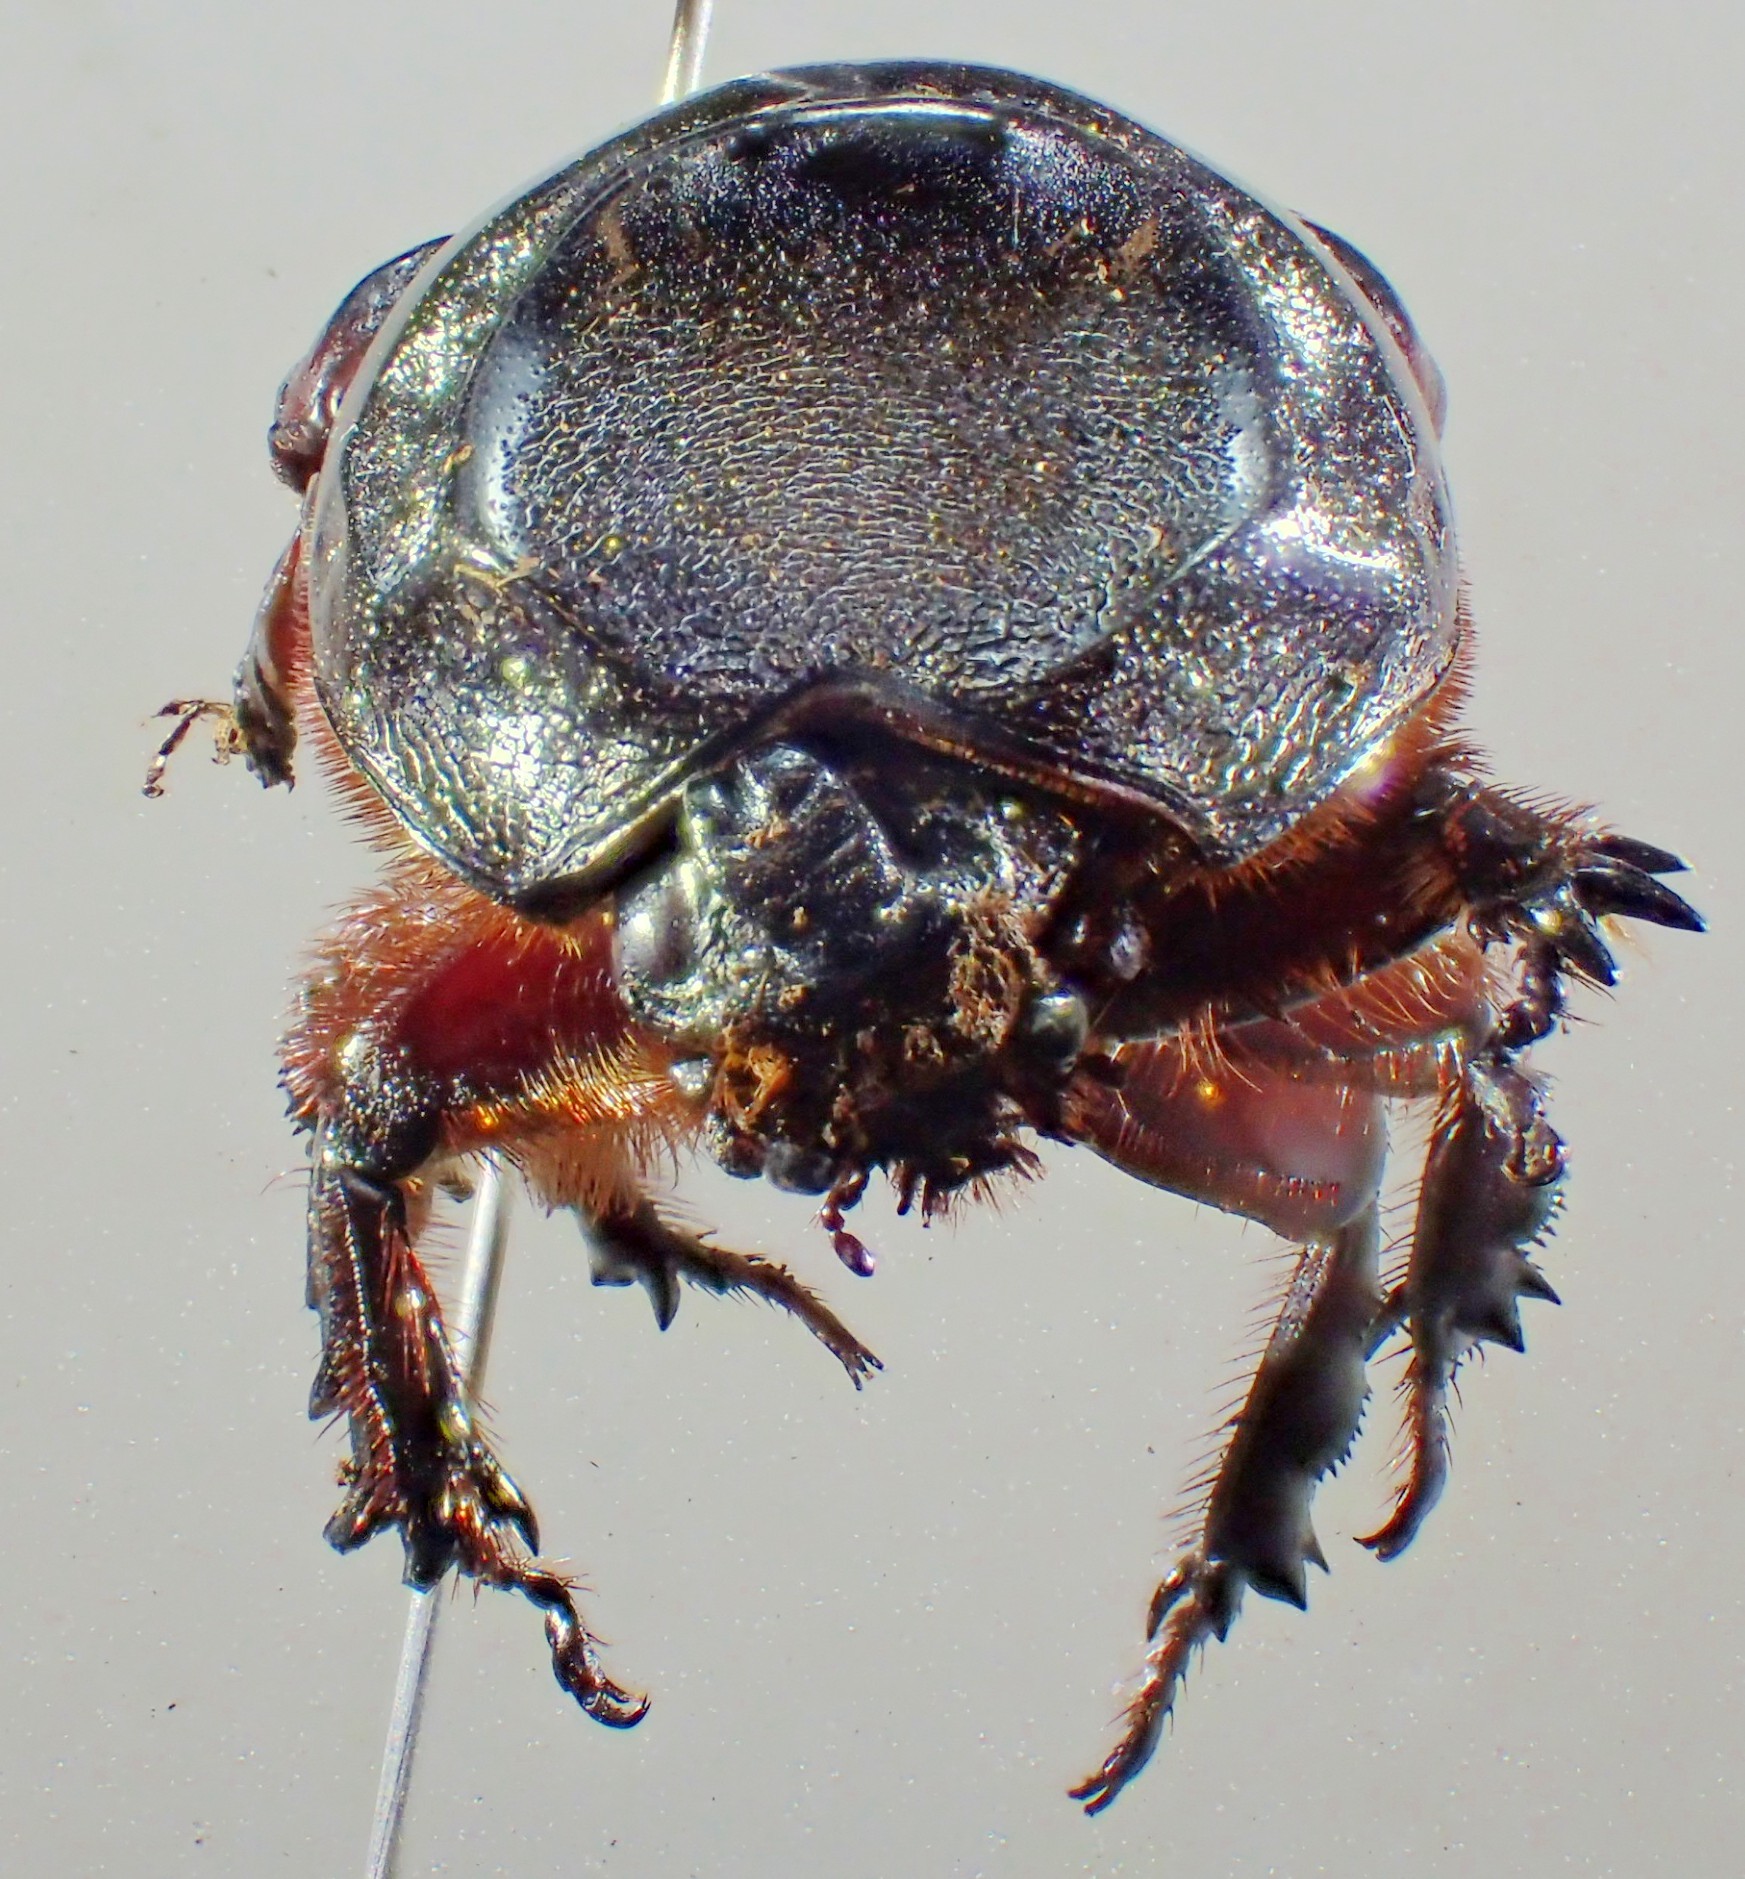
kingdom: Animalia
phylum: Arthropoda
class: Insecta
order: Coleoptera
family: Scarabaeidae
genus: Oryctes
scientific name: Oryctes rhinoceros
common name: Coconut rhinoceros beetle
